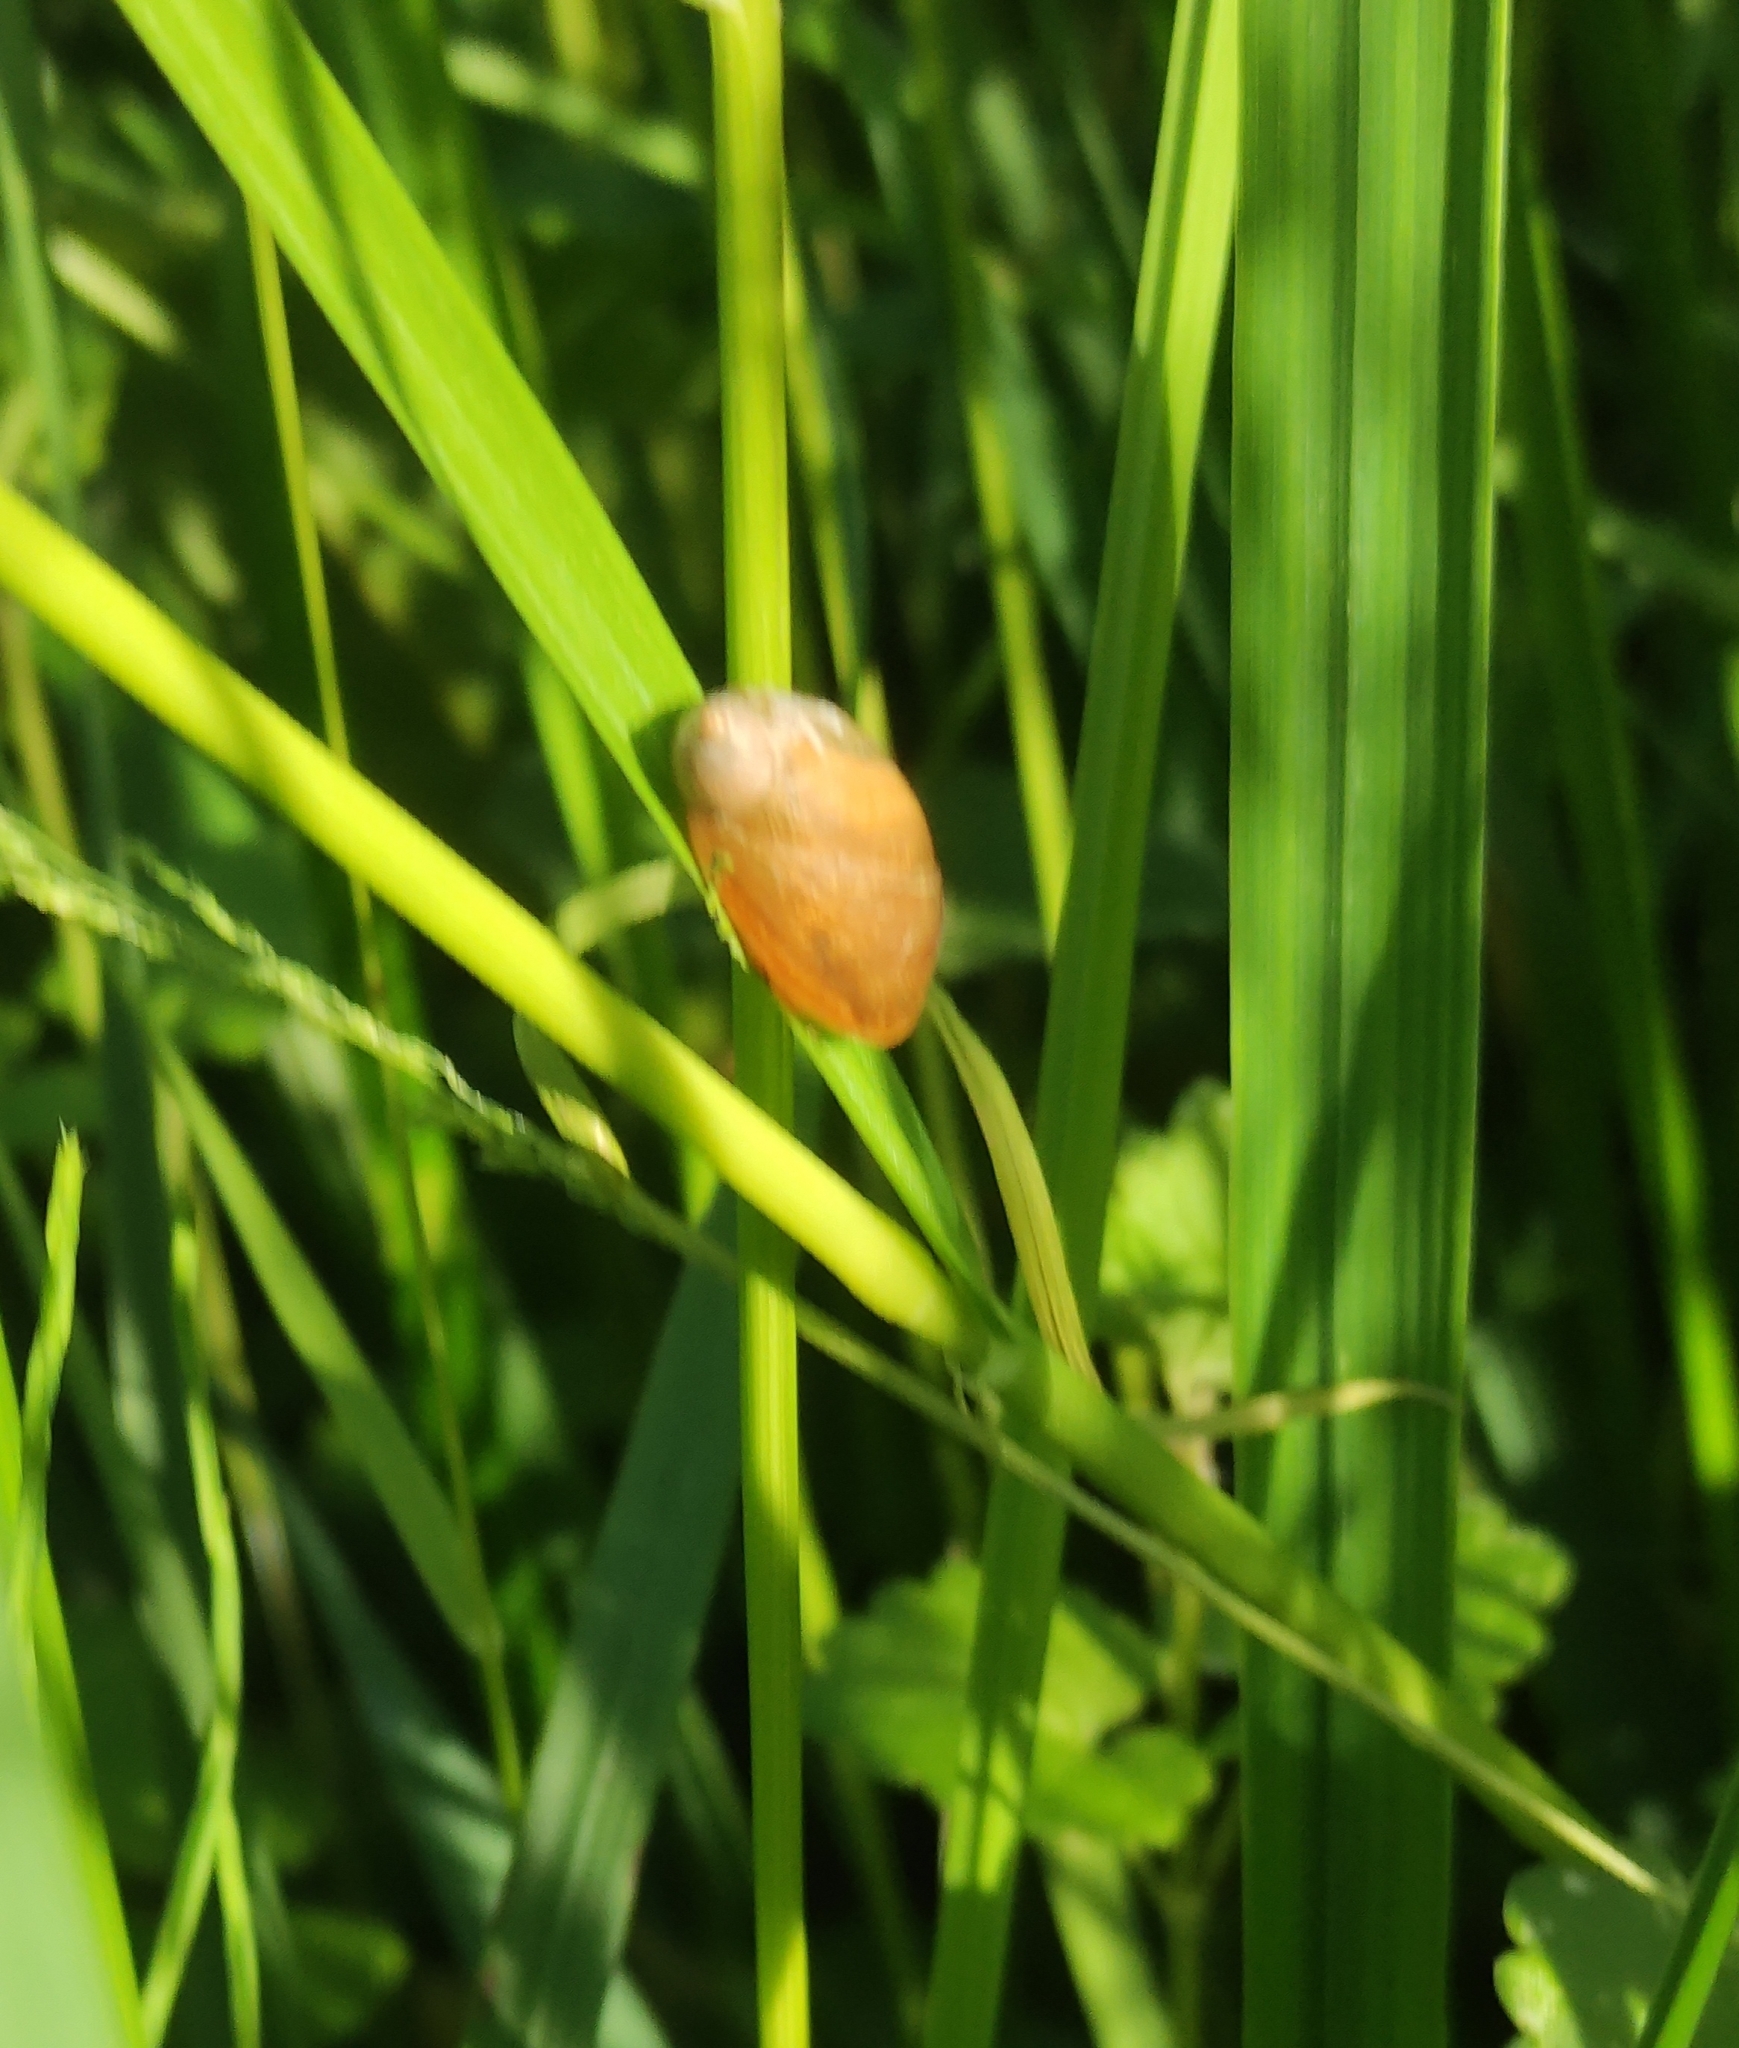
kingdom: Animalia
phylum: Mollusca
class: Gastropoda
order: Stylommatophora
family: Succineidae
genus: Succinea
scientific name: Succinea putris
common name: European ambersnail
